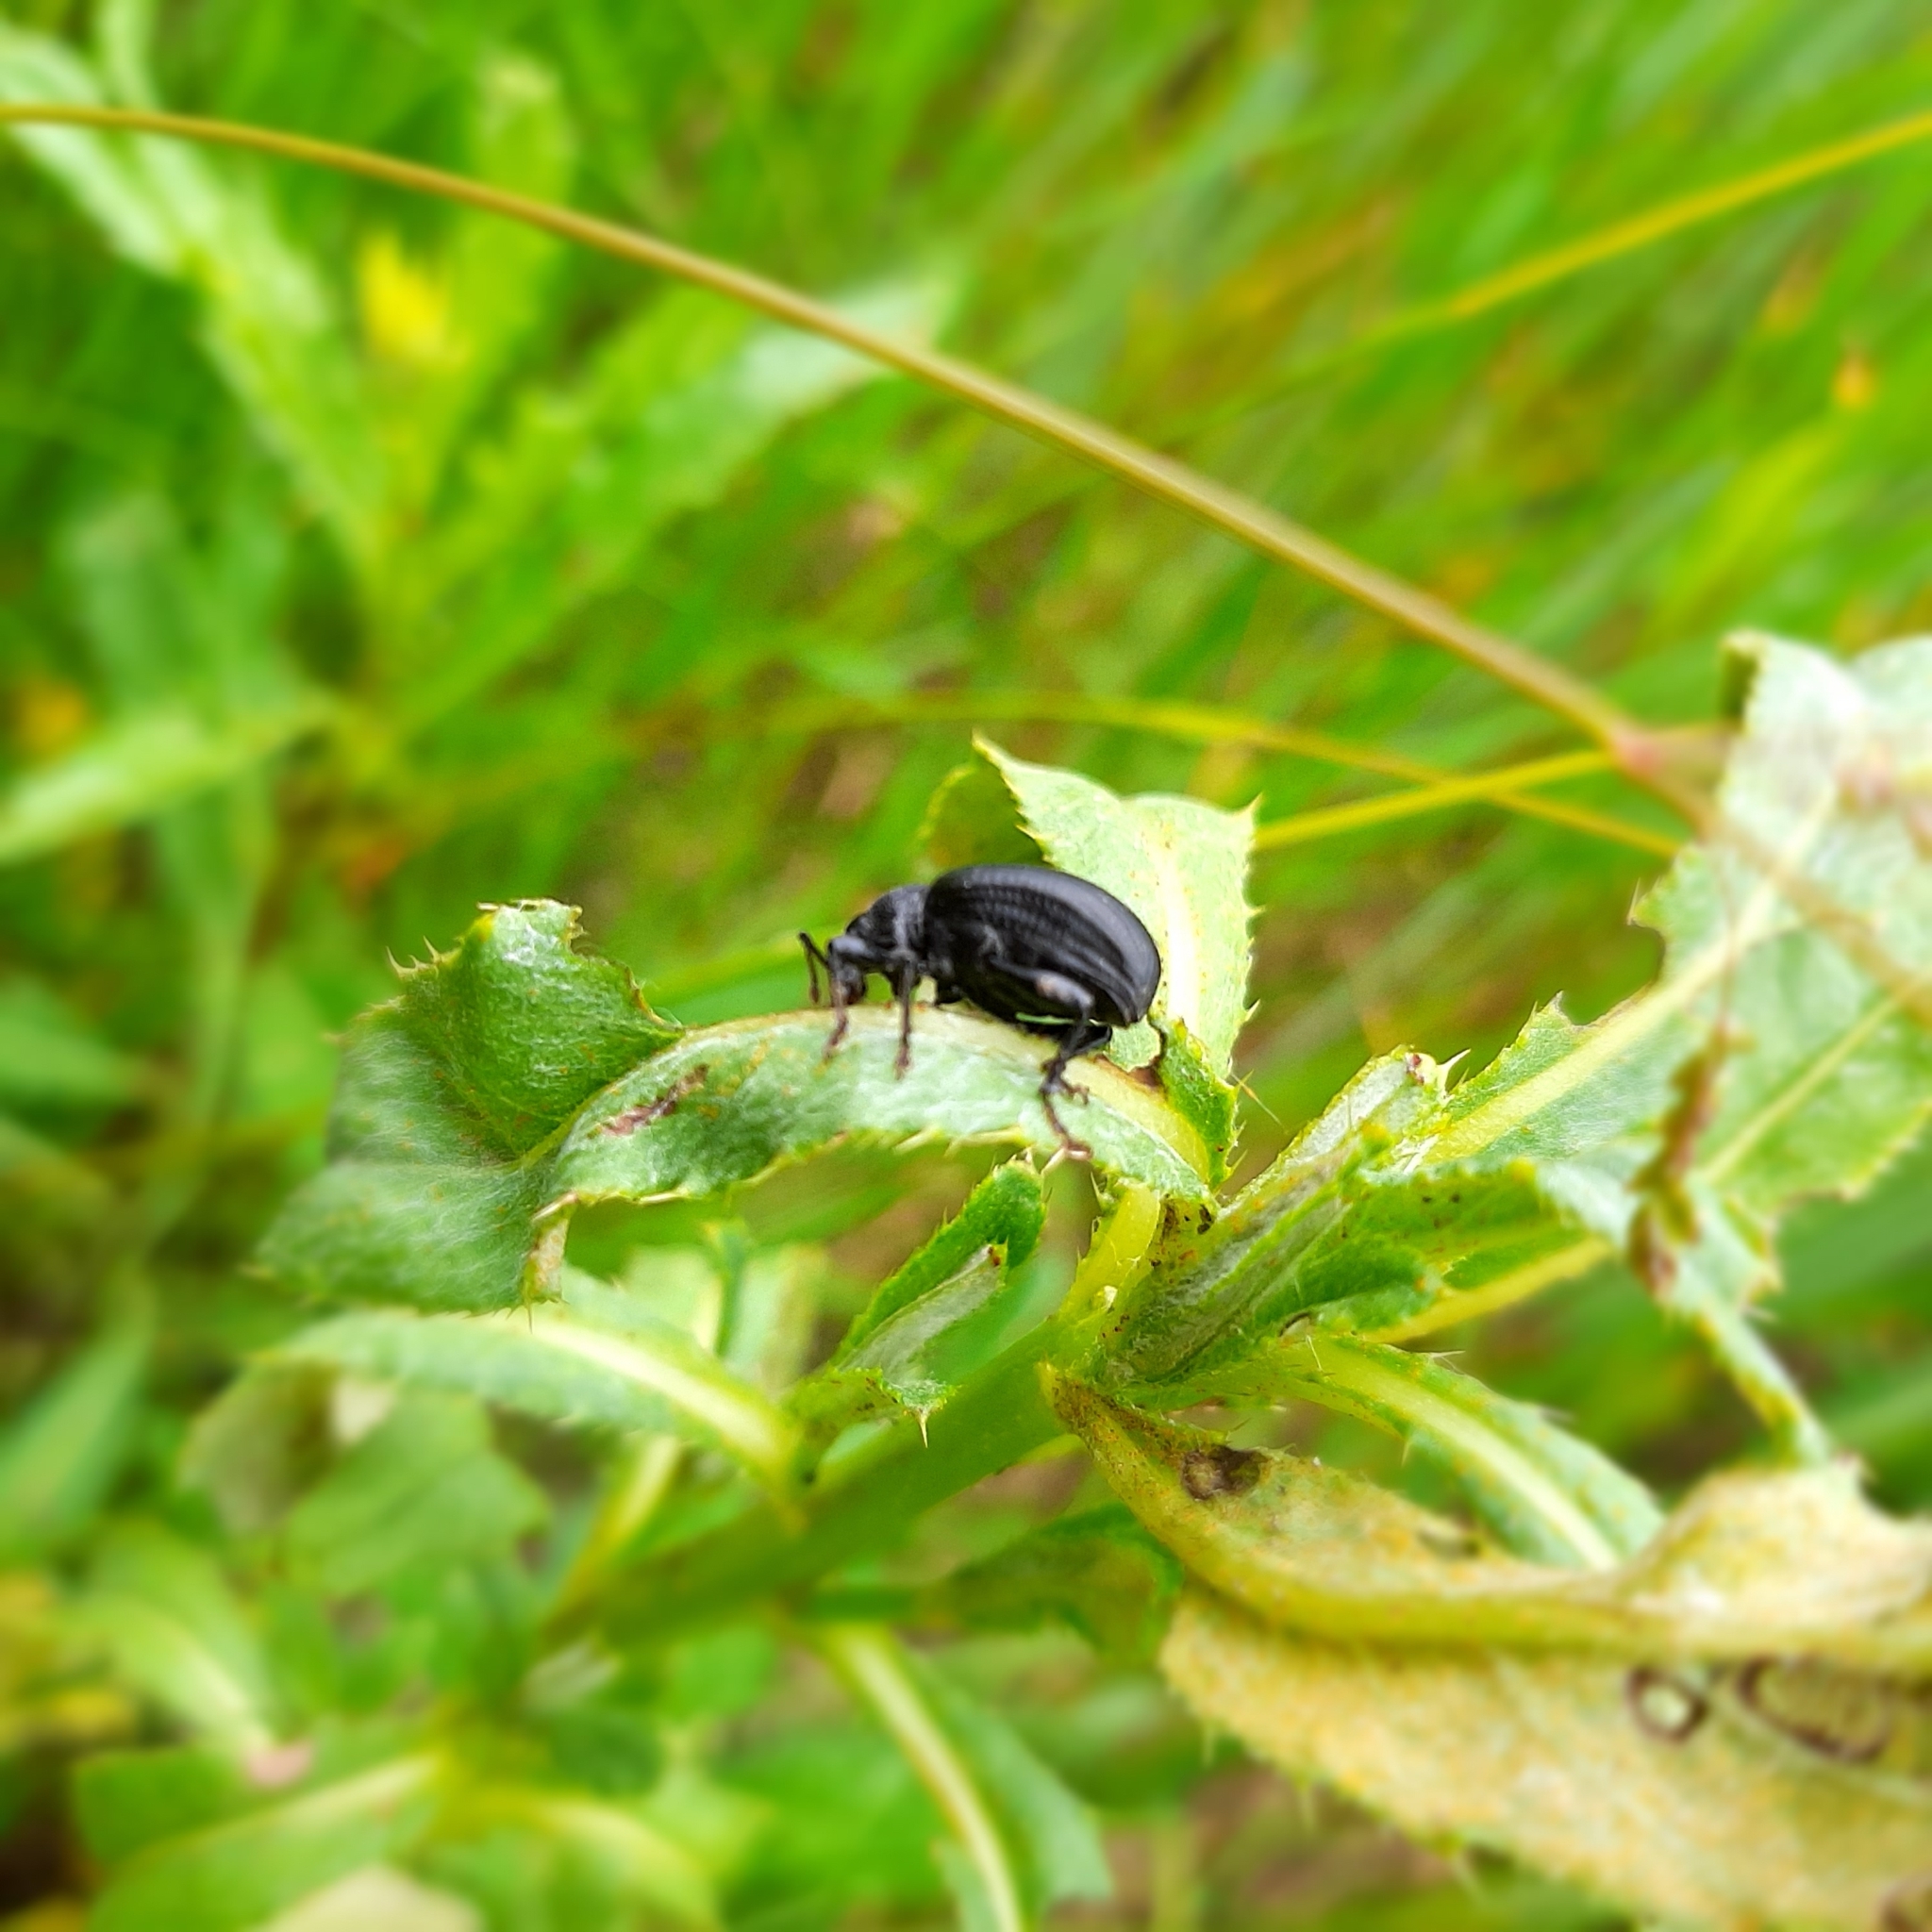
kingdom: Animalia
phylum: Arthropoda
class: Insecta
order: Coleoptera
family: Curculionidae
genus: Otiorhynchus
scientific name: Otiorhynchus
